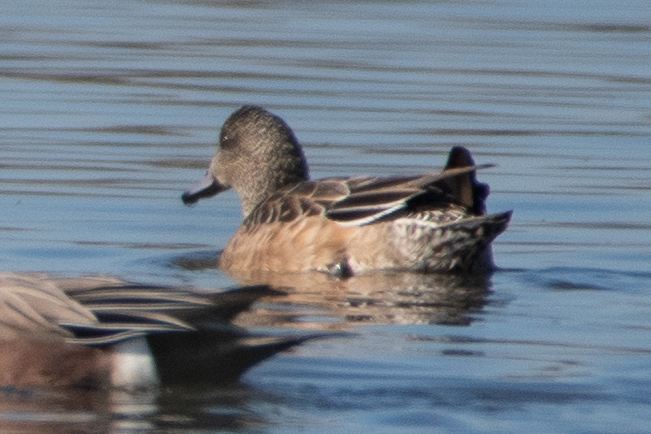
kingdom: Animalia
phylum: Chordata
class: Aves
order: Anseriformes
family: Anatidae
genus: Mareca
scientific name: Mareca americana
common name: American wigeon
